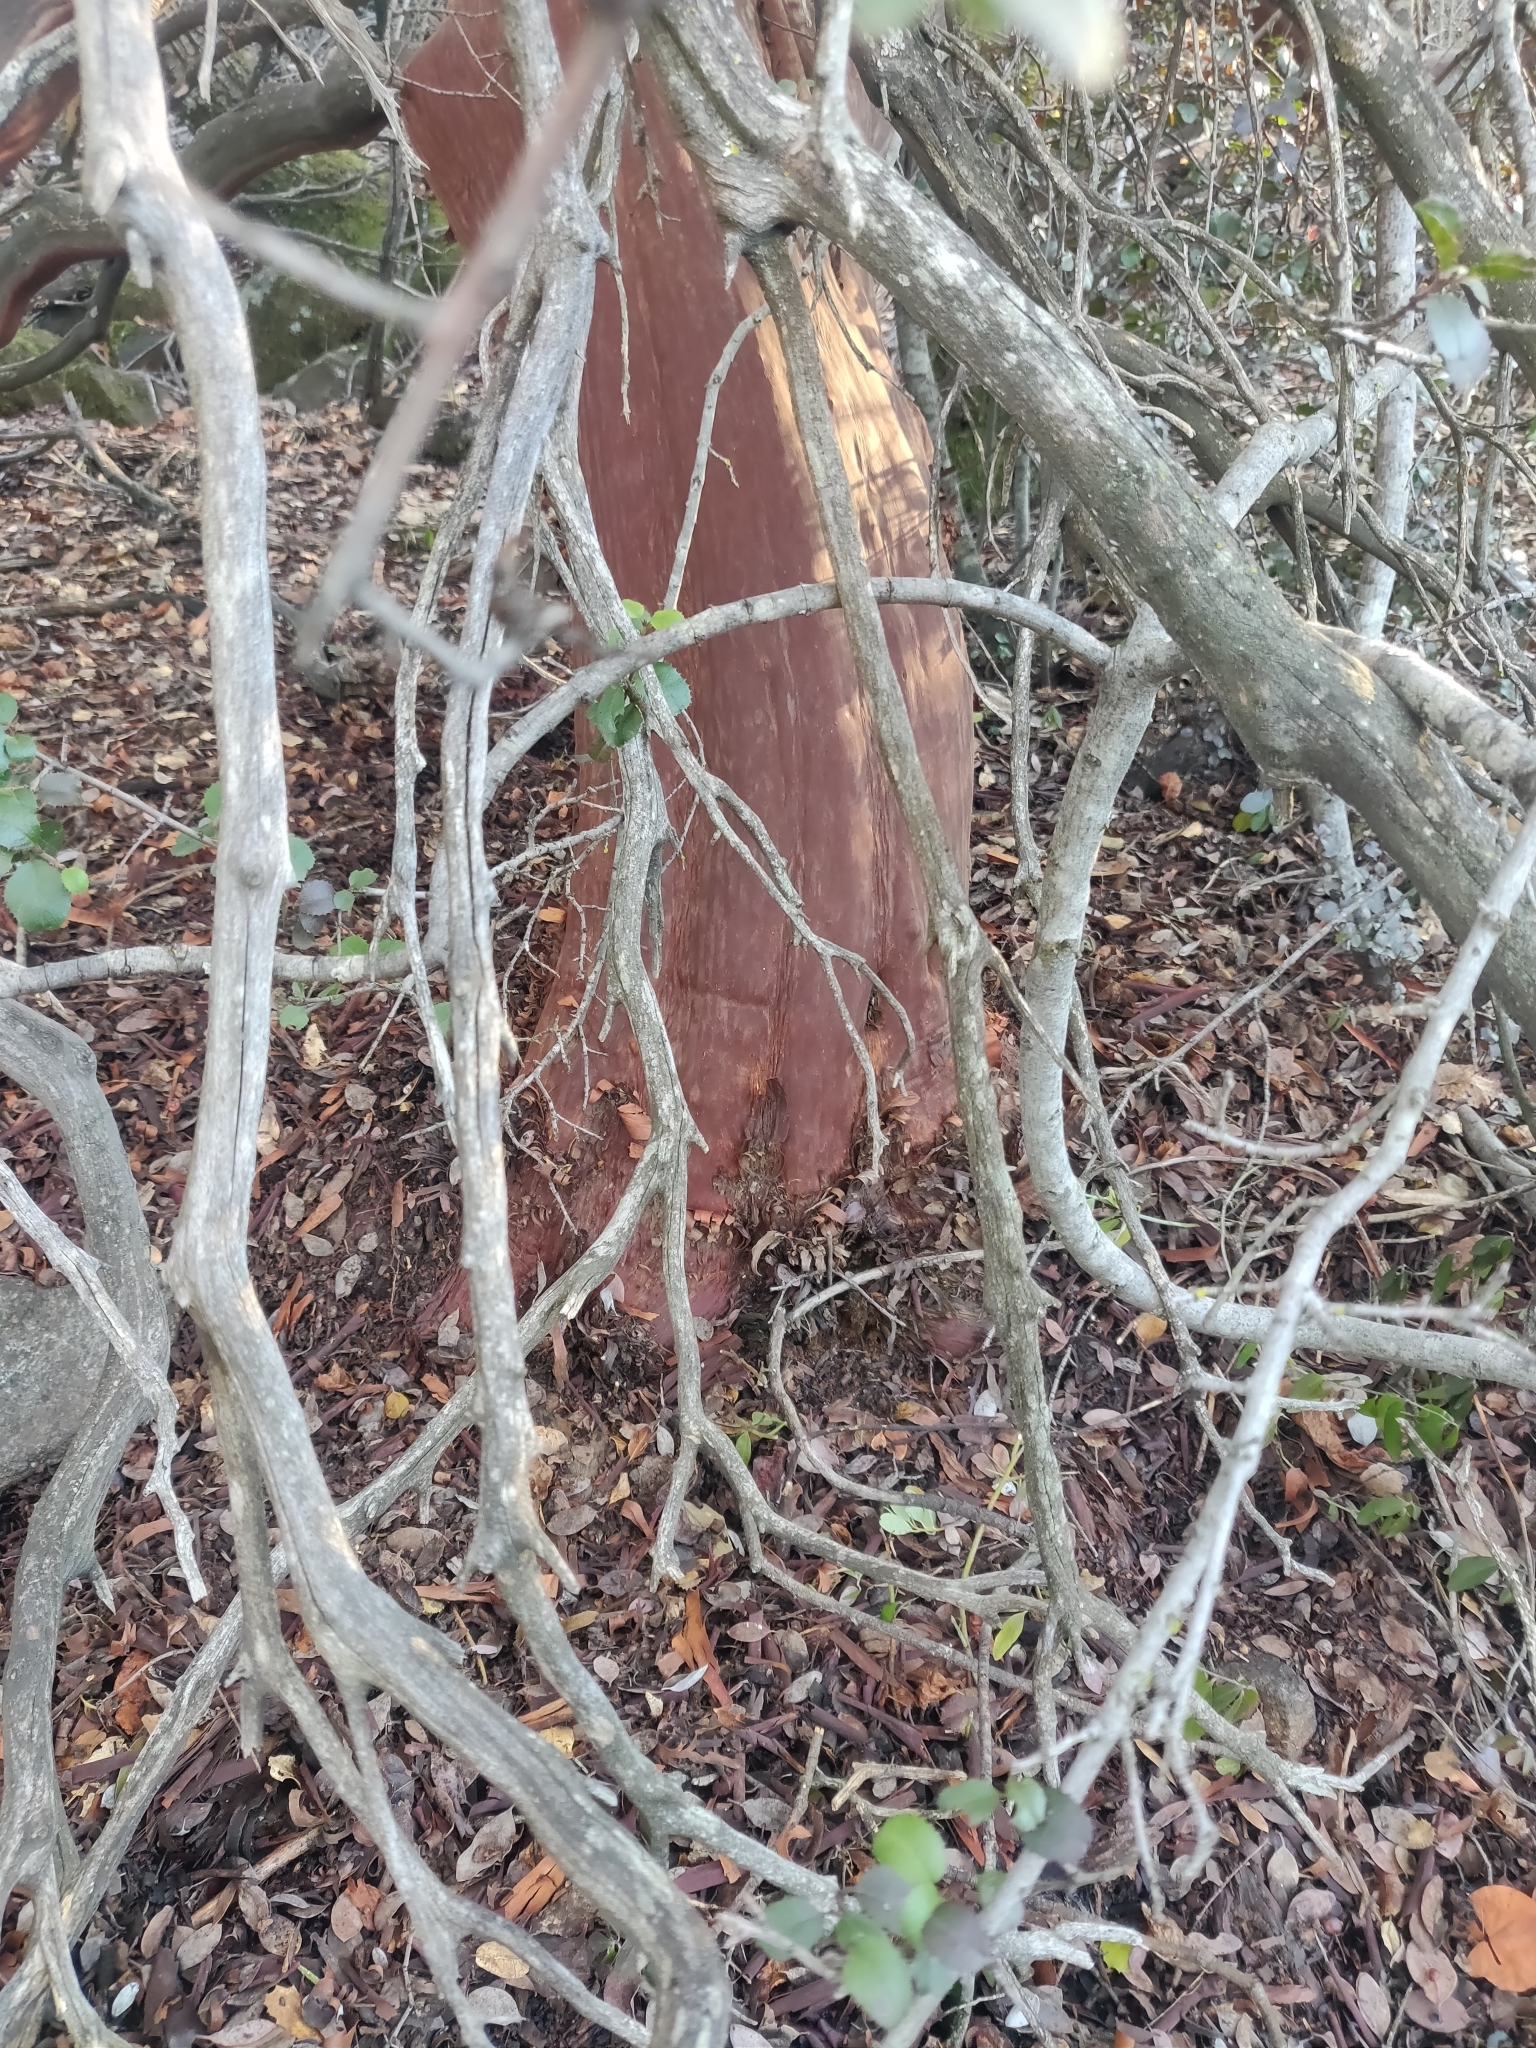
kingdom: Plantae
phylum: Tracheophyta
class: Magnoliopsida
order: Ericales
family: Ericaceae
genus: Arctostaphylos
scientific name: Arctostaphylos viscida
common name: White-leaf manzanita
